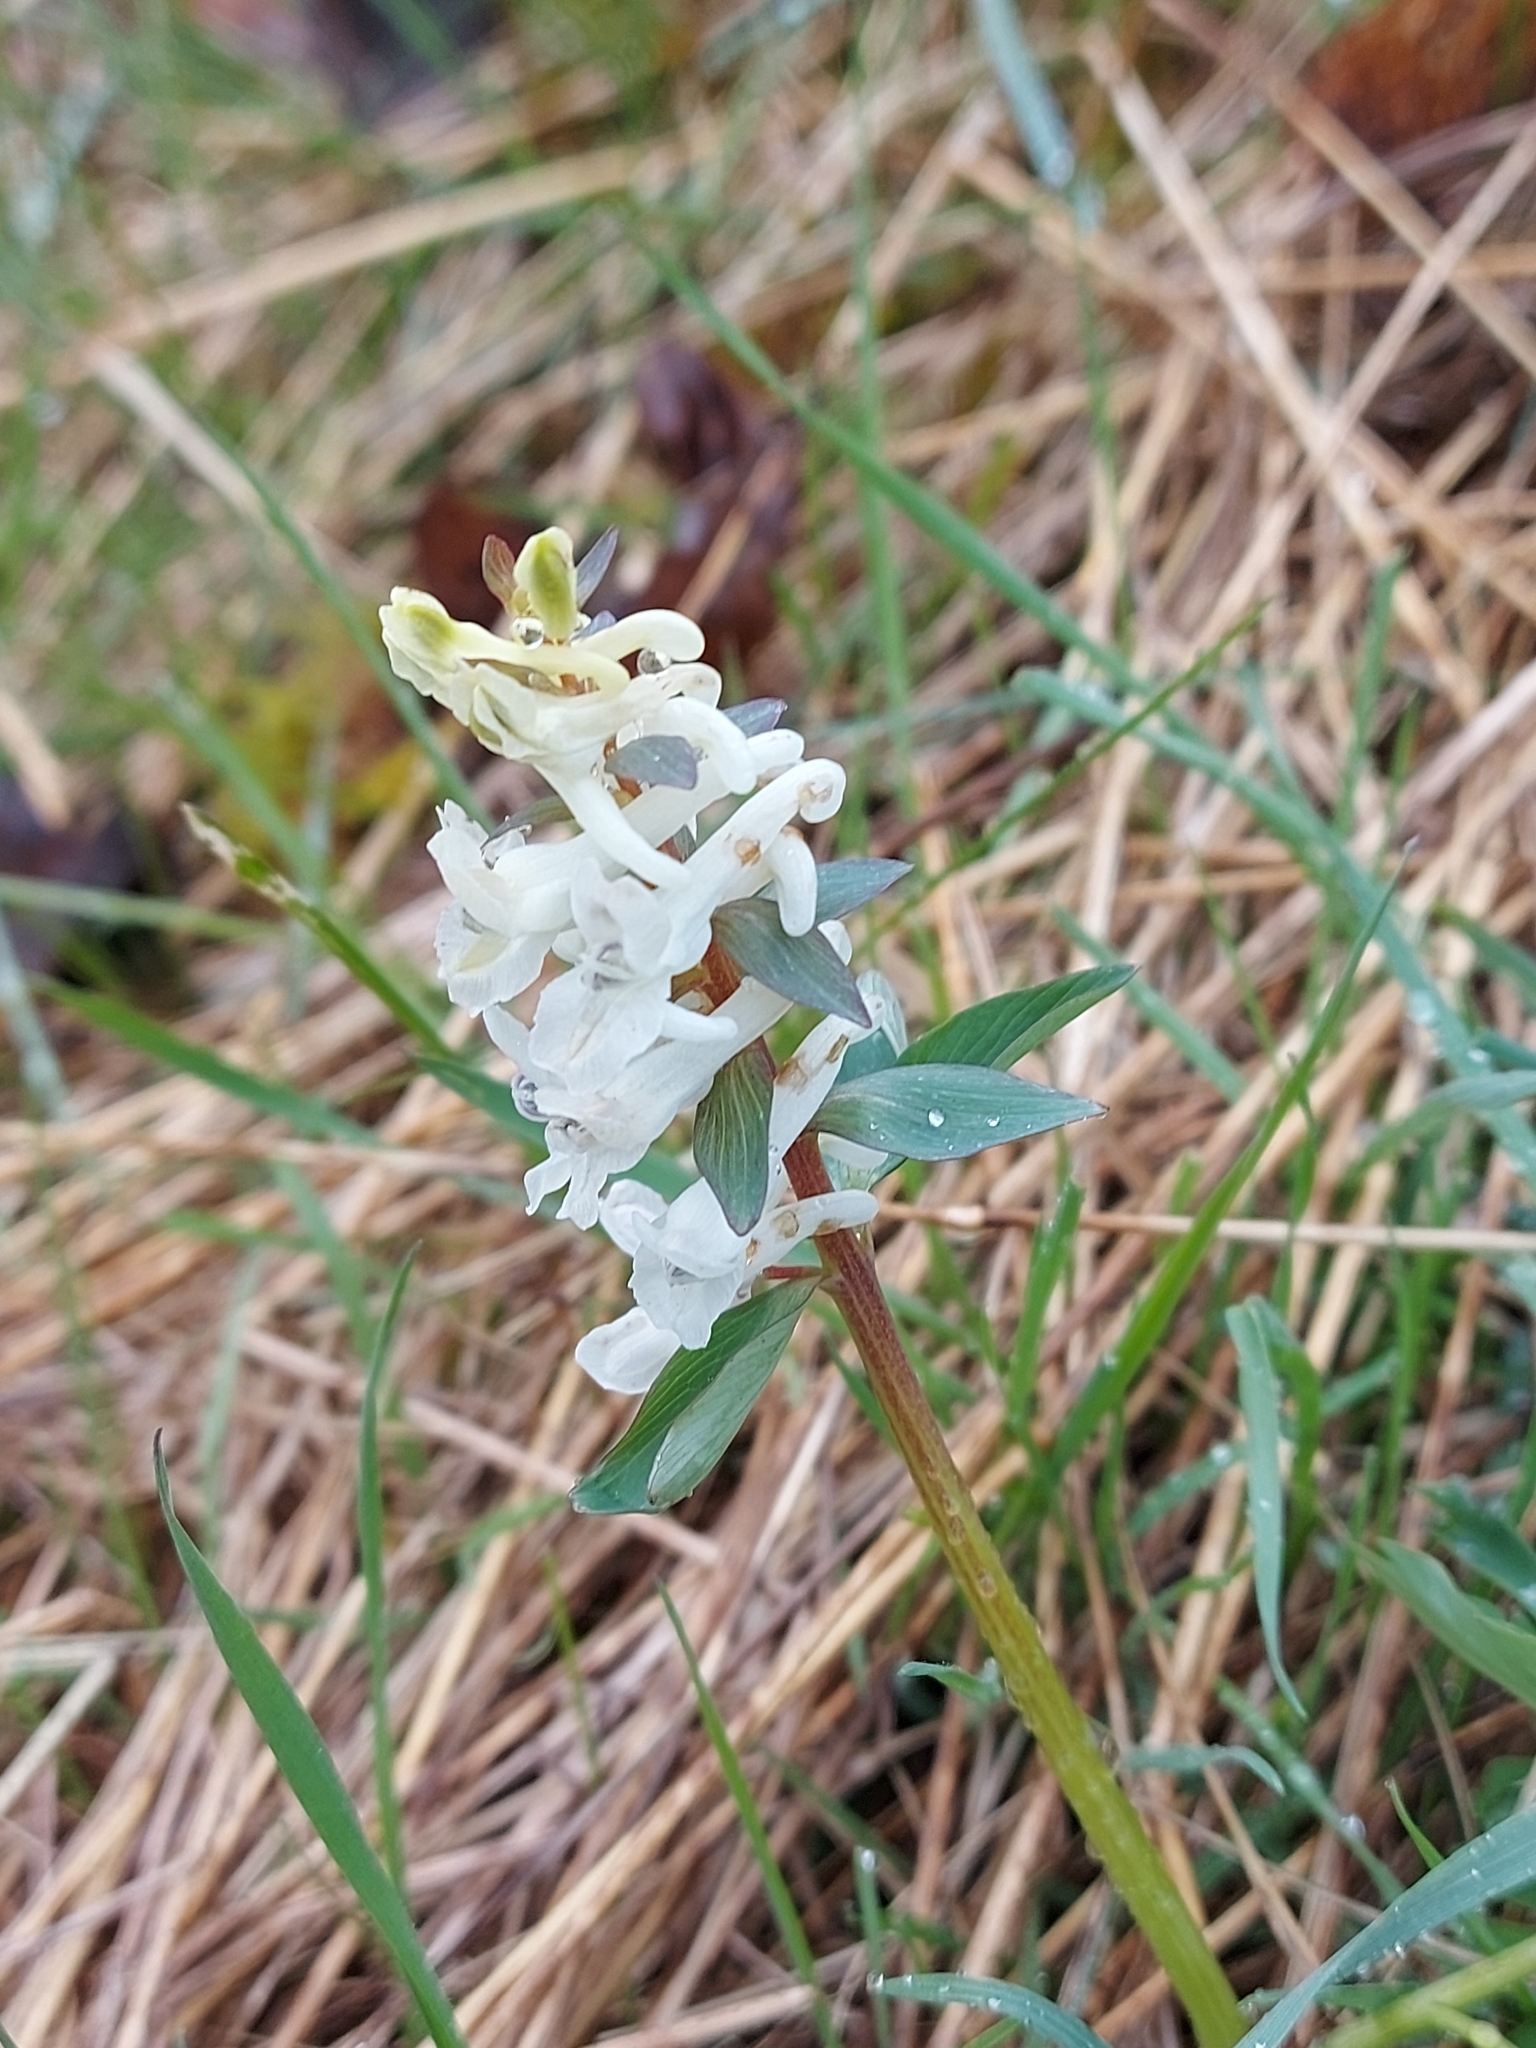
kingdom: Plantae
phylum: Tracheophyta
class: Magnoliopsida
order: Ranunculales
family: Papaveraceae
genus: Corydalis
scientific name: Corydalis cava
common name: Hollowroot
